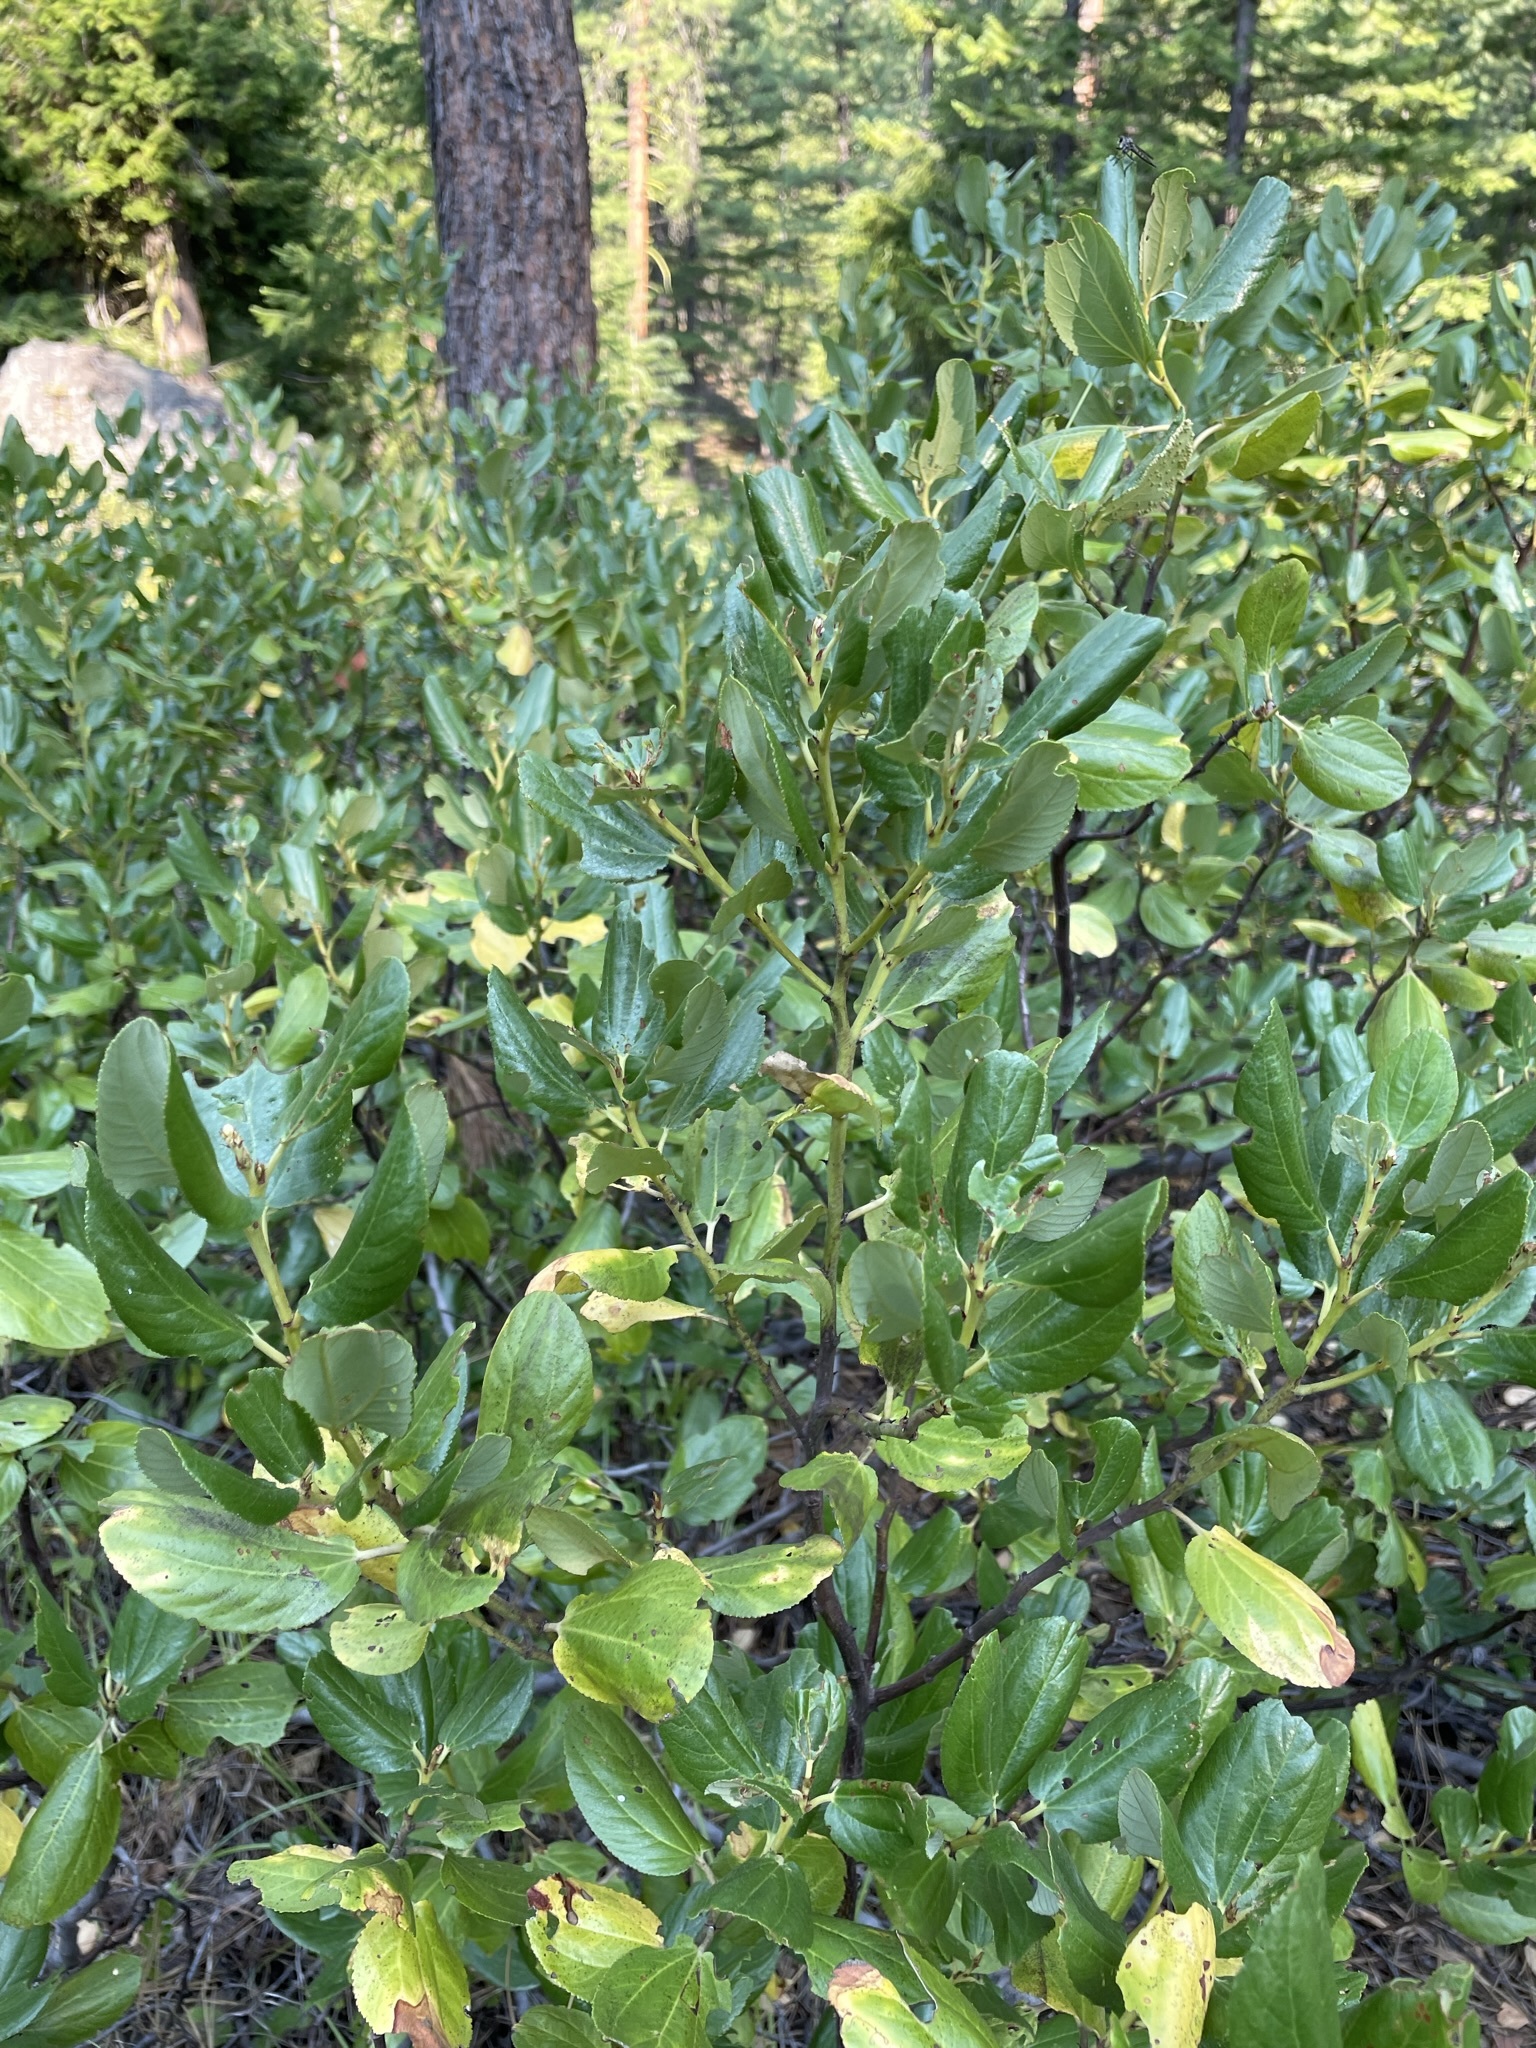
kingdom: Plantae
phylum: Tracheophyta
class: Magnoliopsida
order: Rosales
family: Rhamnaceae
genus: Ceanothus
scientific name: Ceanothus velutinus
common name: Snowbrush
